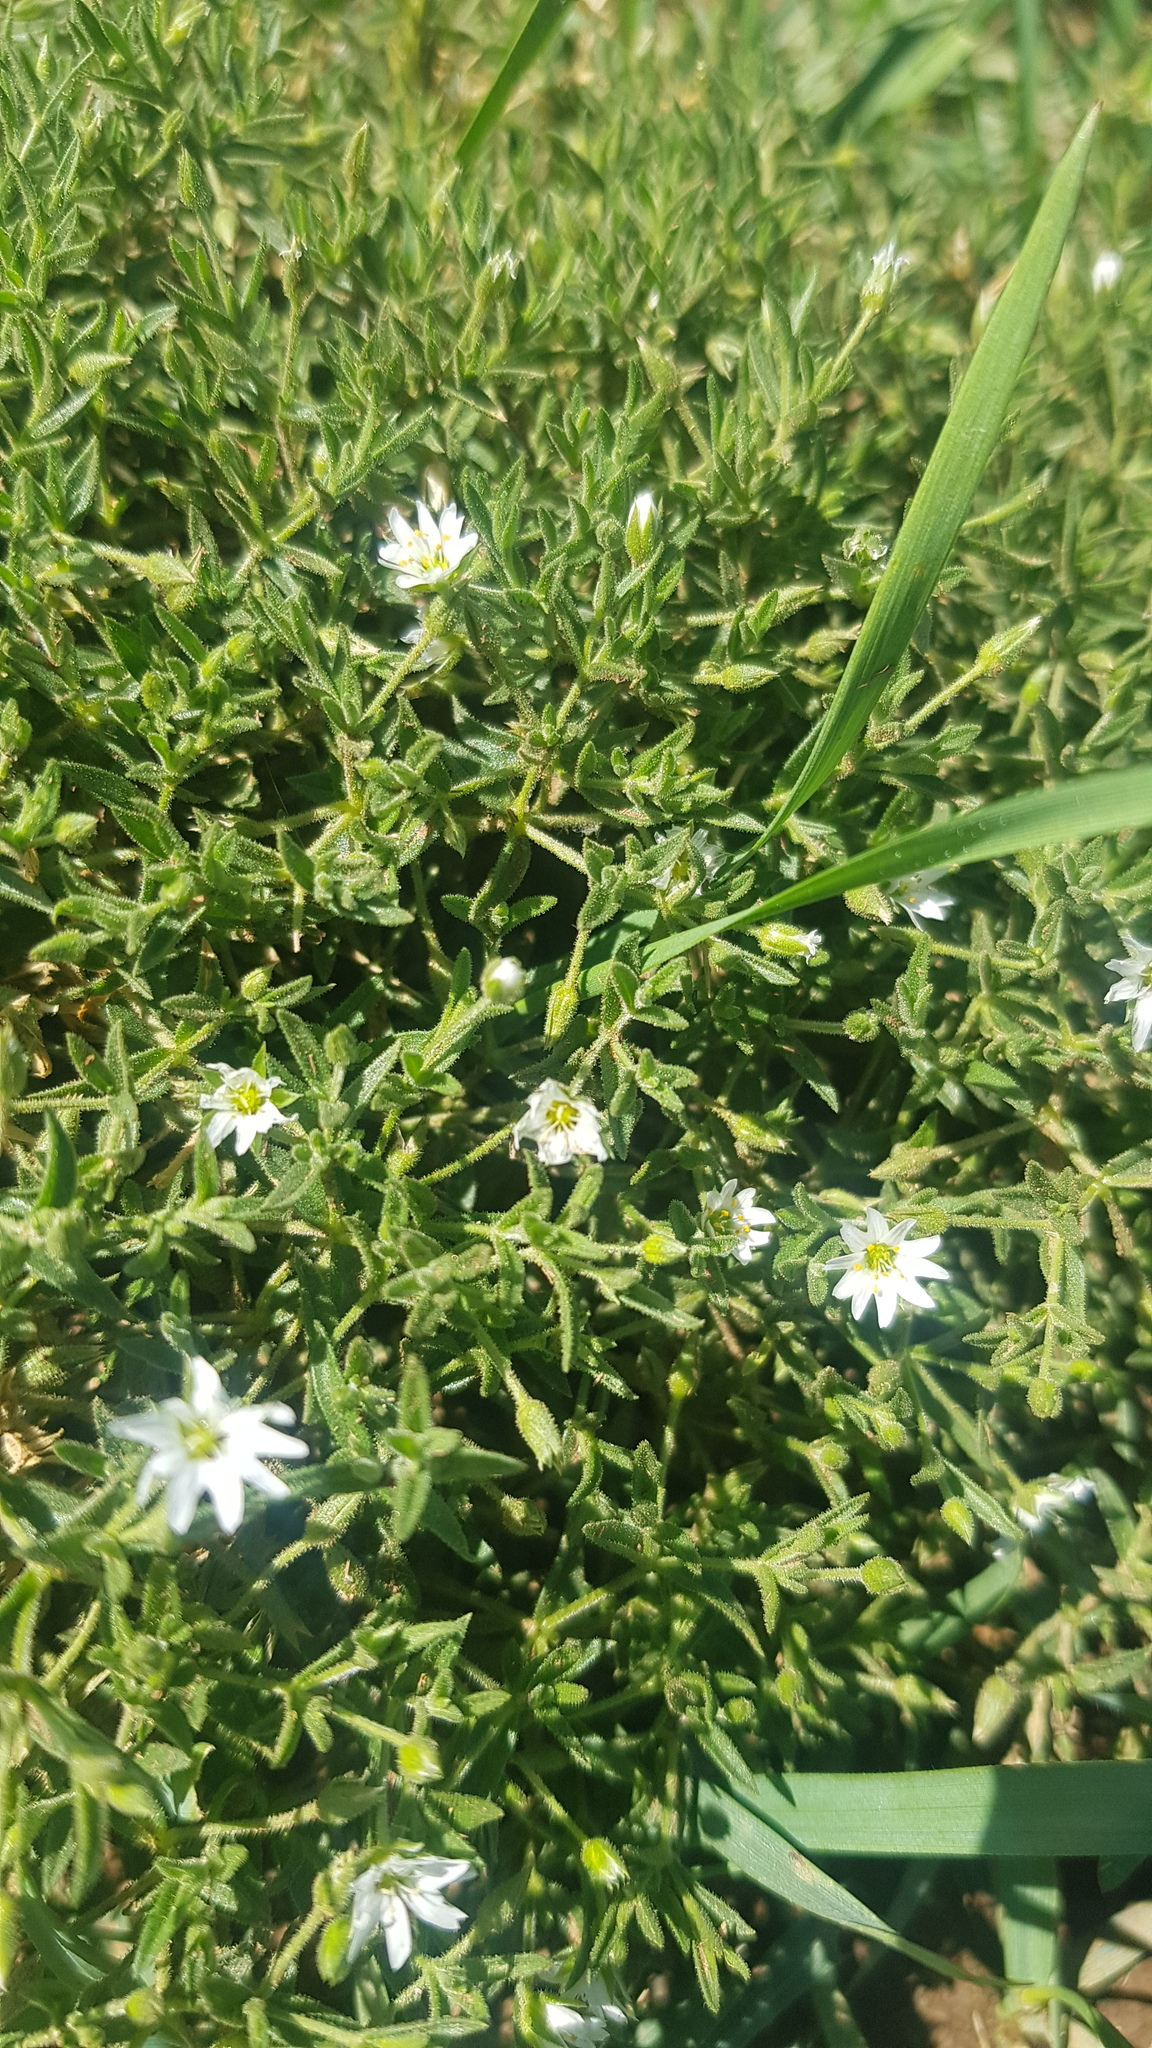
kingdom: Plantae
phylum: Tracheophyta
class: Magnoliopsida
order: Caryophyllales
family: Caryophyllaceae
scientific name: Caryophyllaceae
